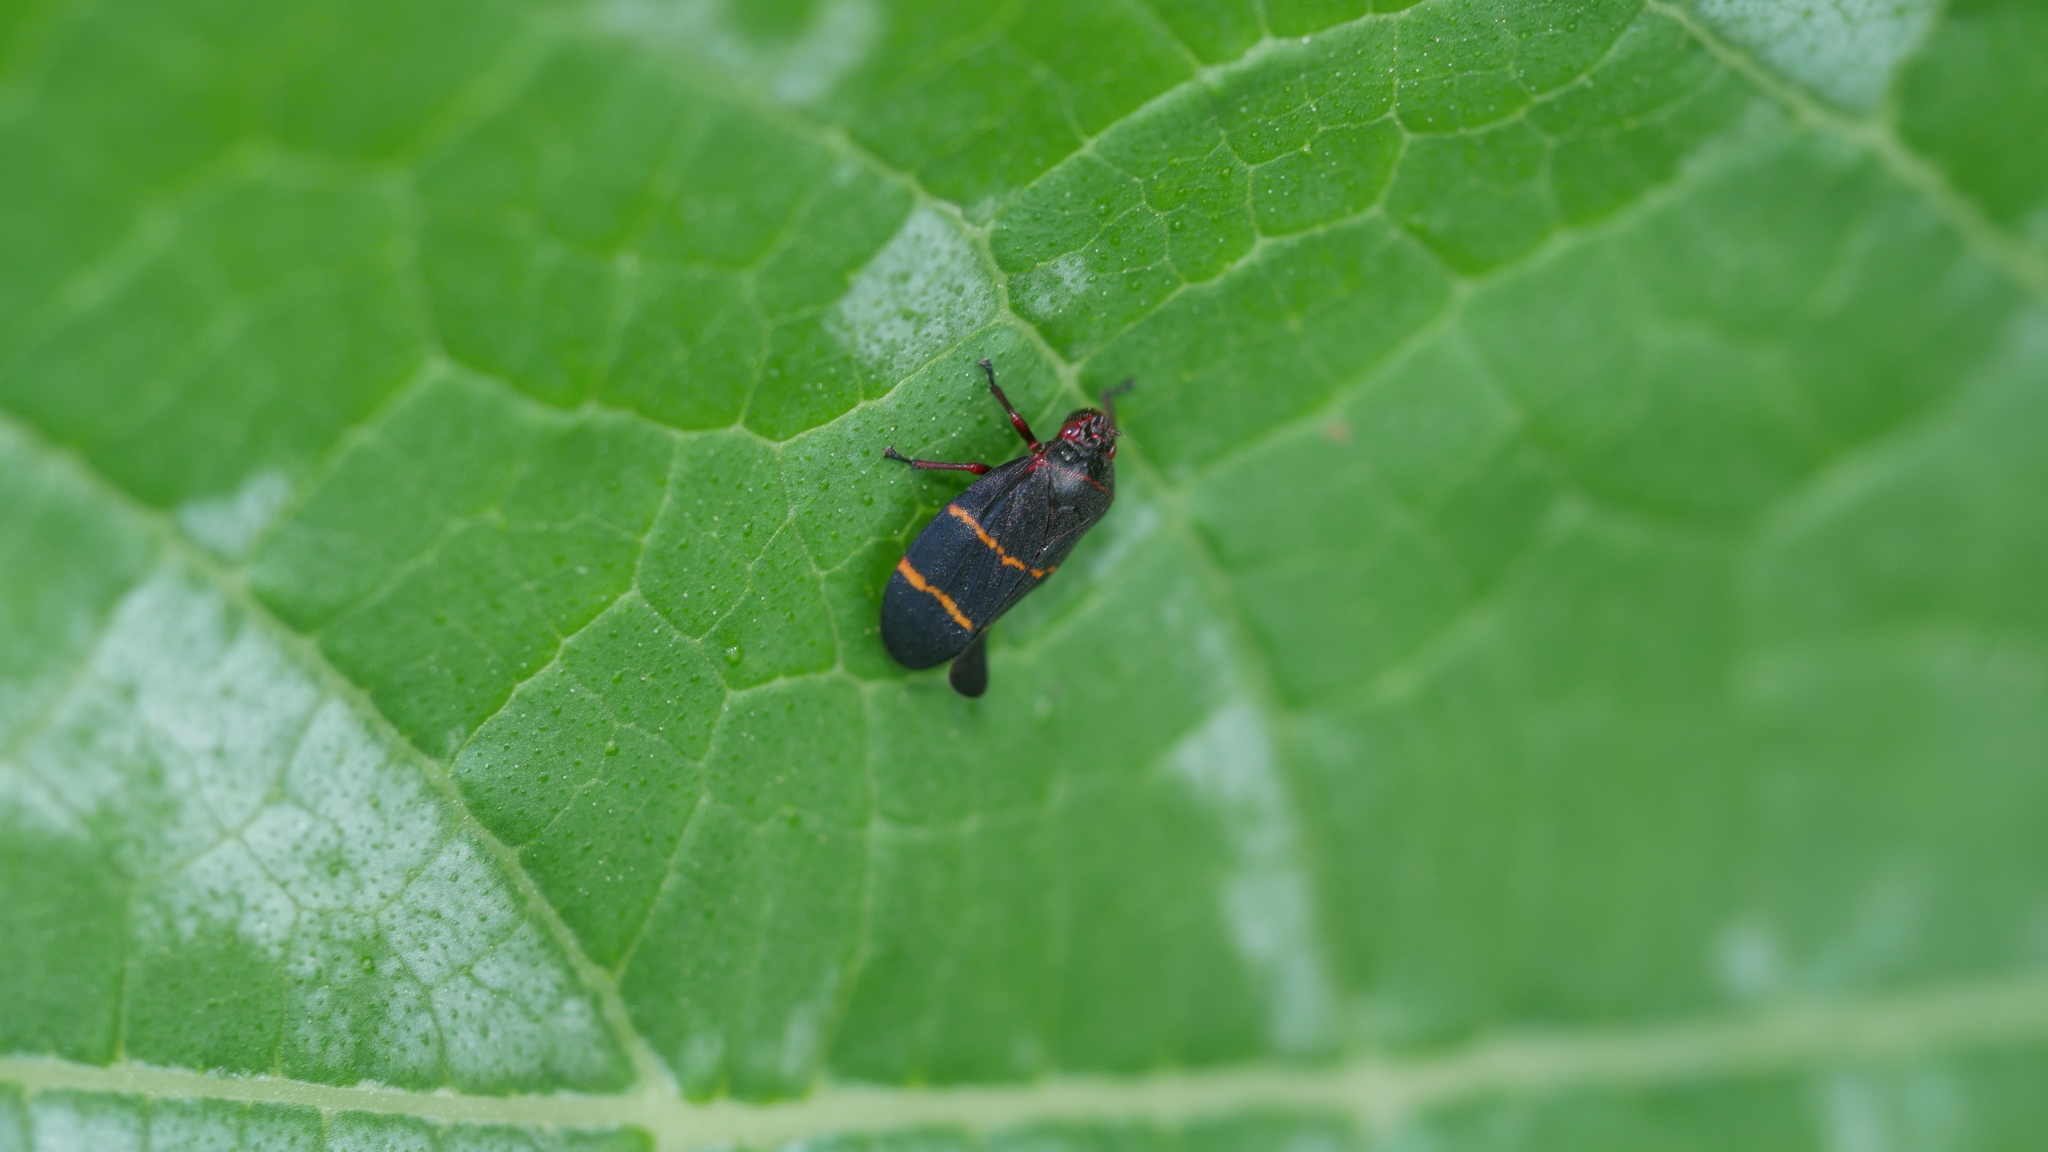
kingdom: Animalia
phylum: Arthropoda
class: Insecta
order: Hemiptera
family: Cercopidae
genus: Prosapia
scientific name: Prosapia bicincta
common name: Twolined spittlebug
